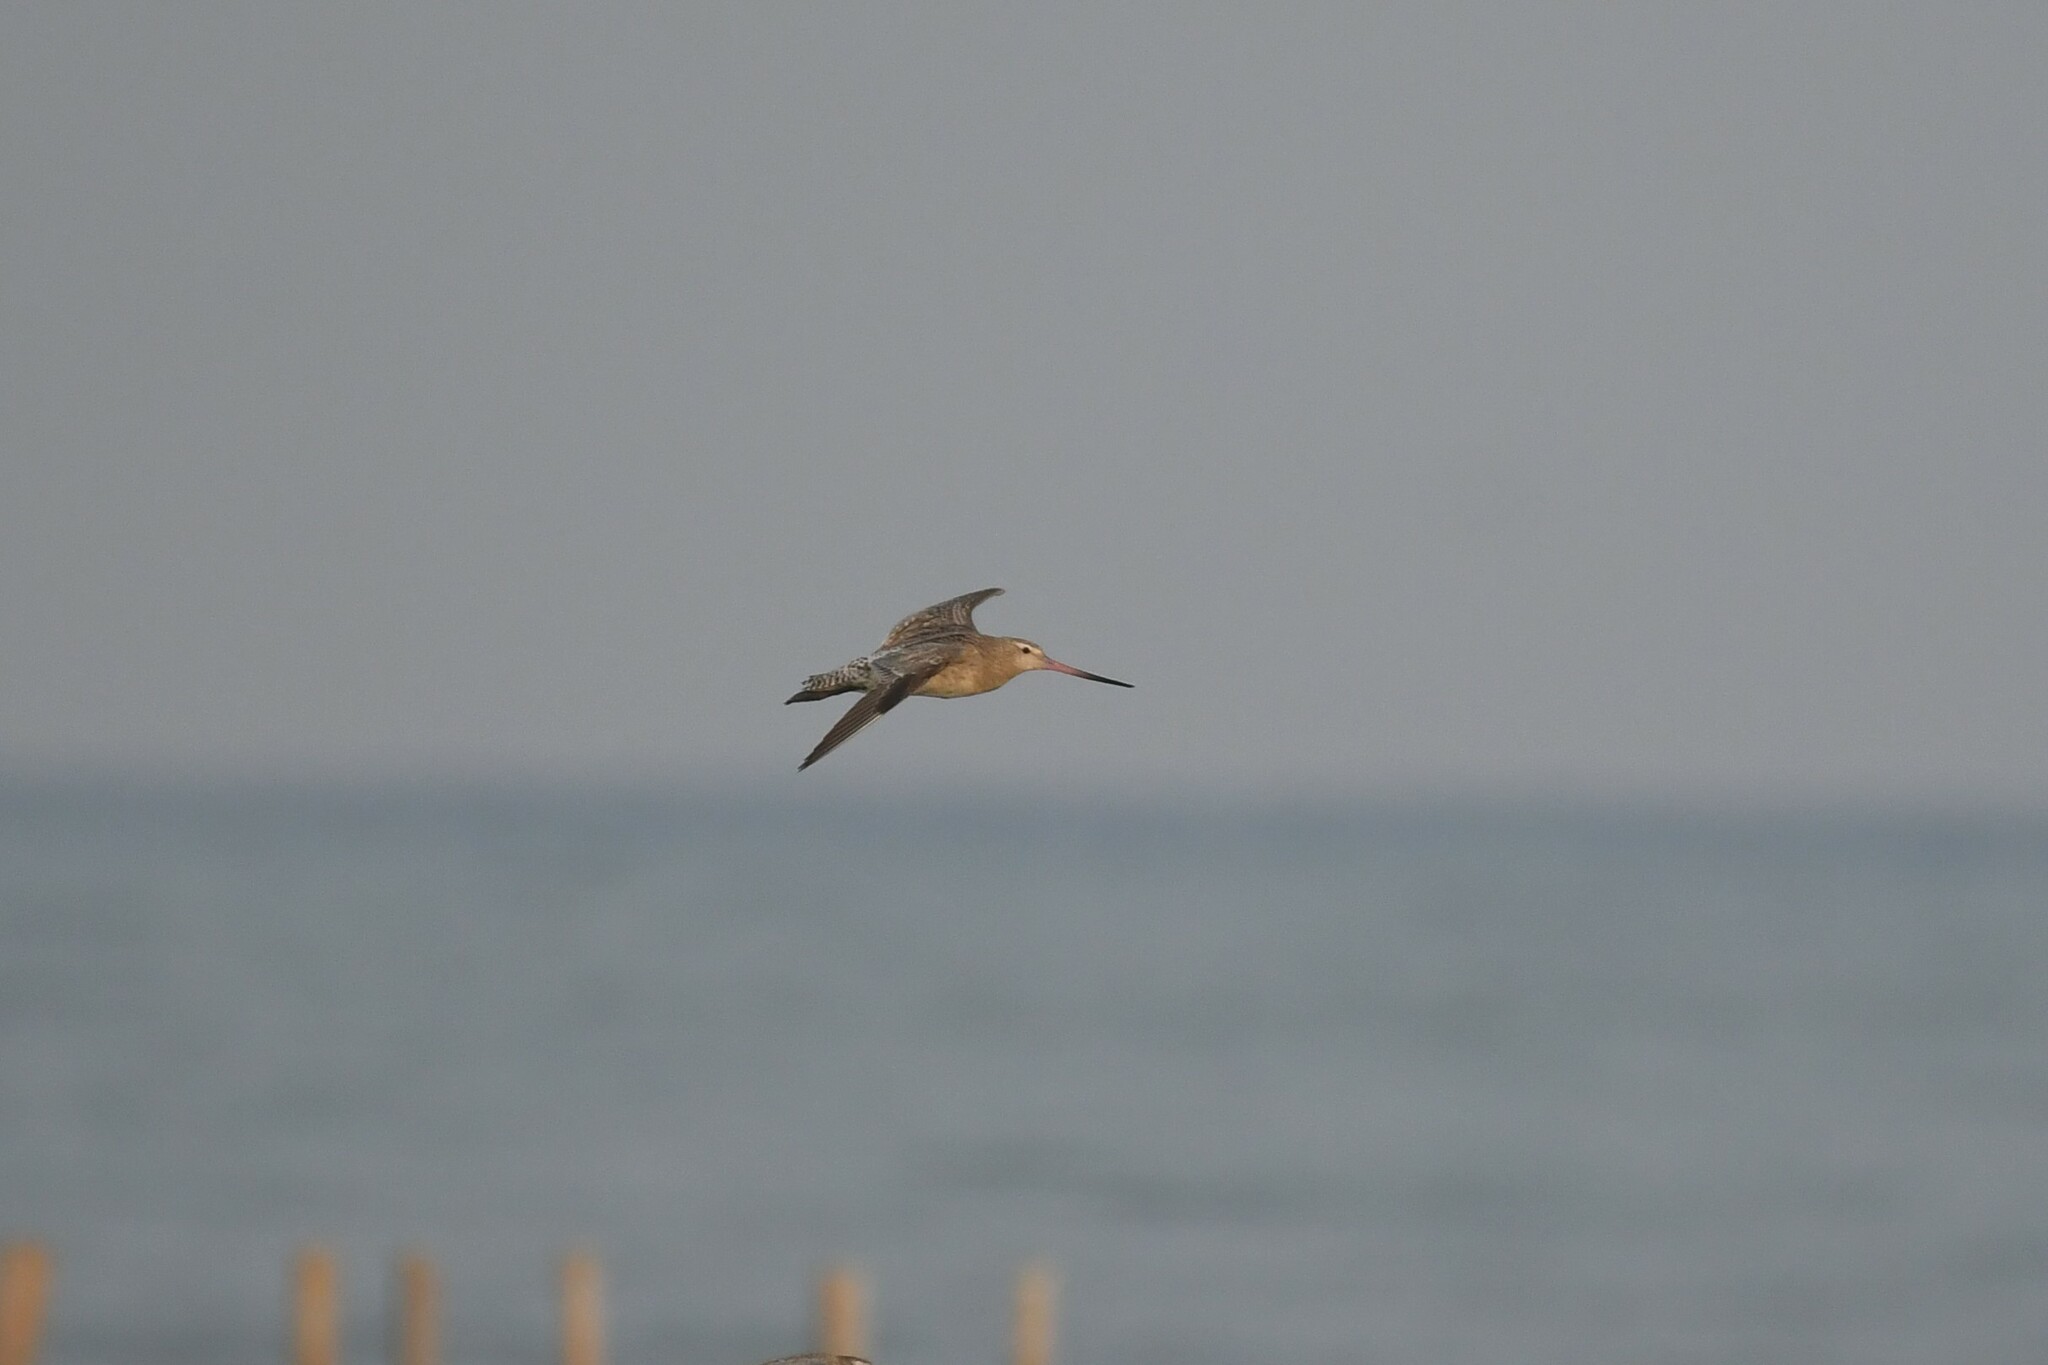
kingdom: Animalia
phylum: Chordata
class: Aves
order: Charadriiformes
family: Scolopacidae
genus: Limosa
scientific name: Limosa lapponica
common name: Bar-tailed godwit
